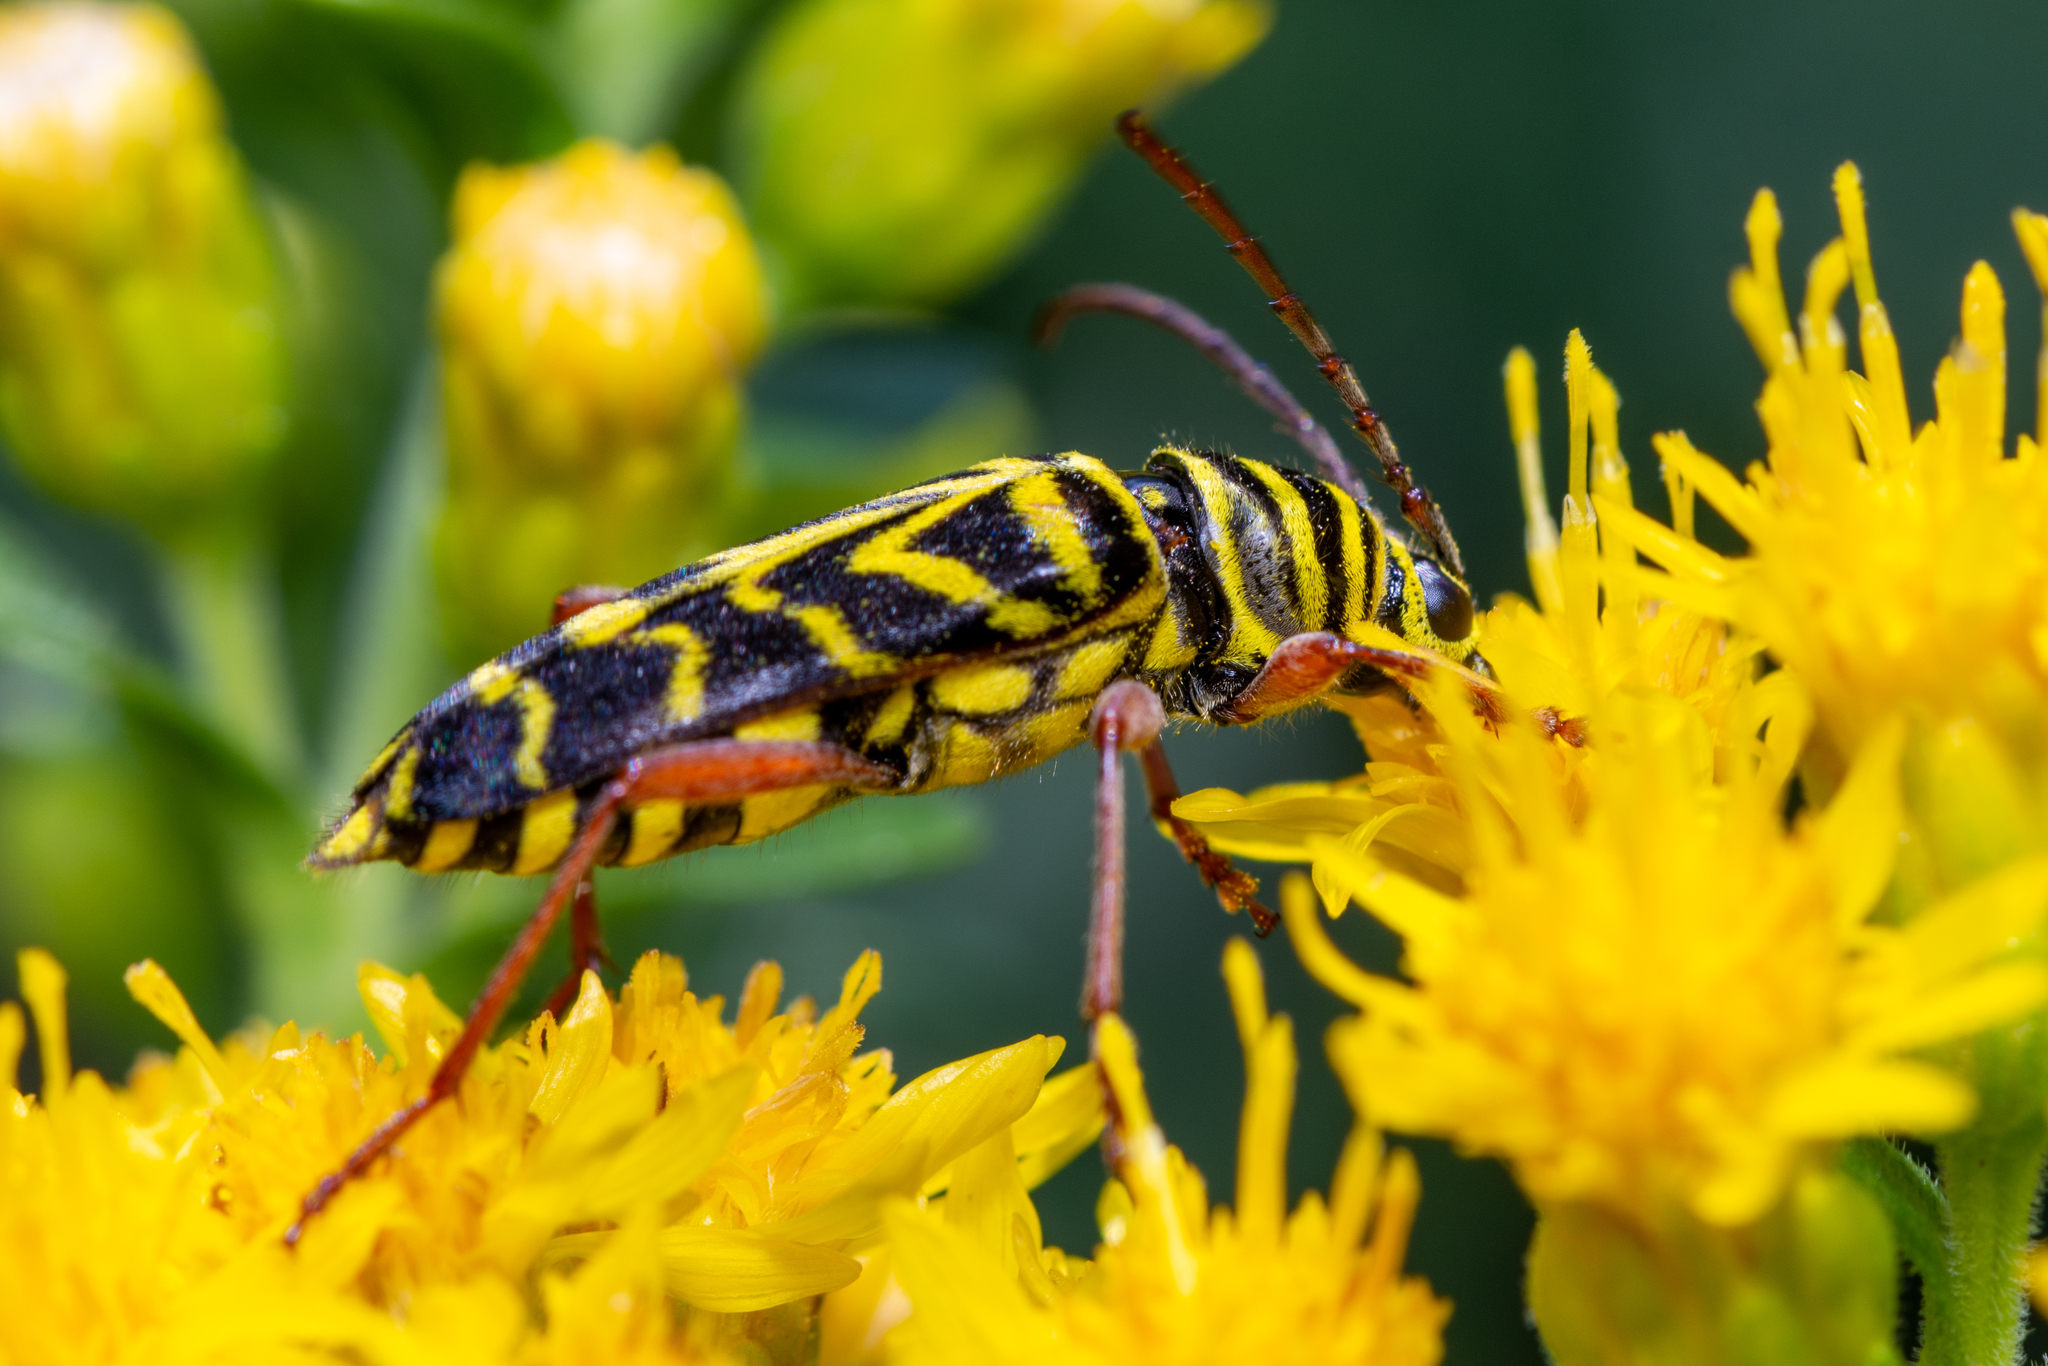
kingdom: Animalia
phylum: Arthropoda
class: Insecta
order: Coleoptera
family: Cerambycidae
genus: Megacyllene
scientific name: Megacyllene robiniae
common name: Locust borer
